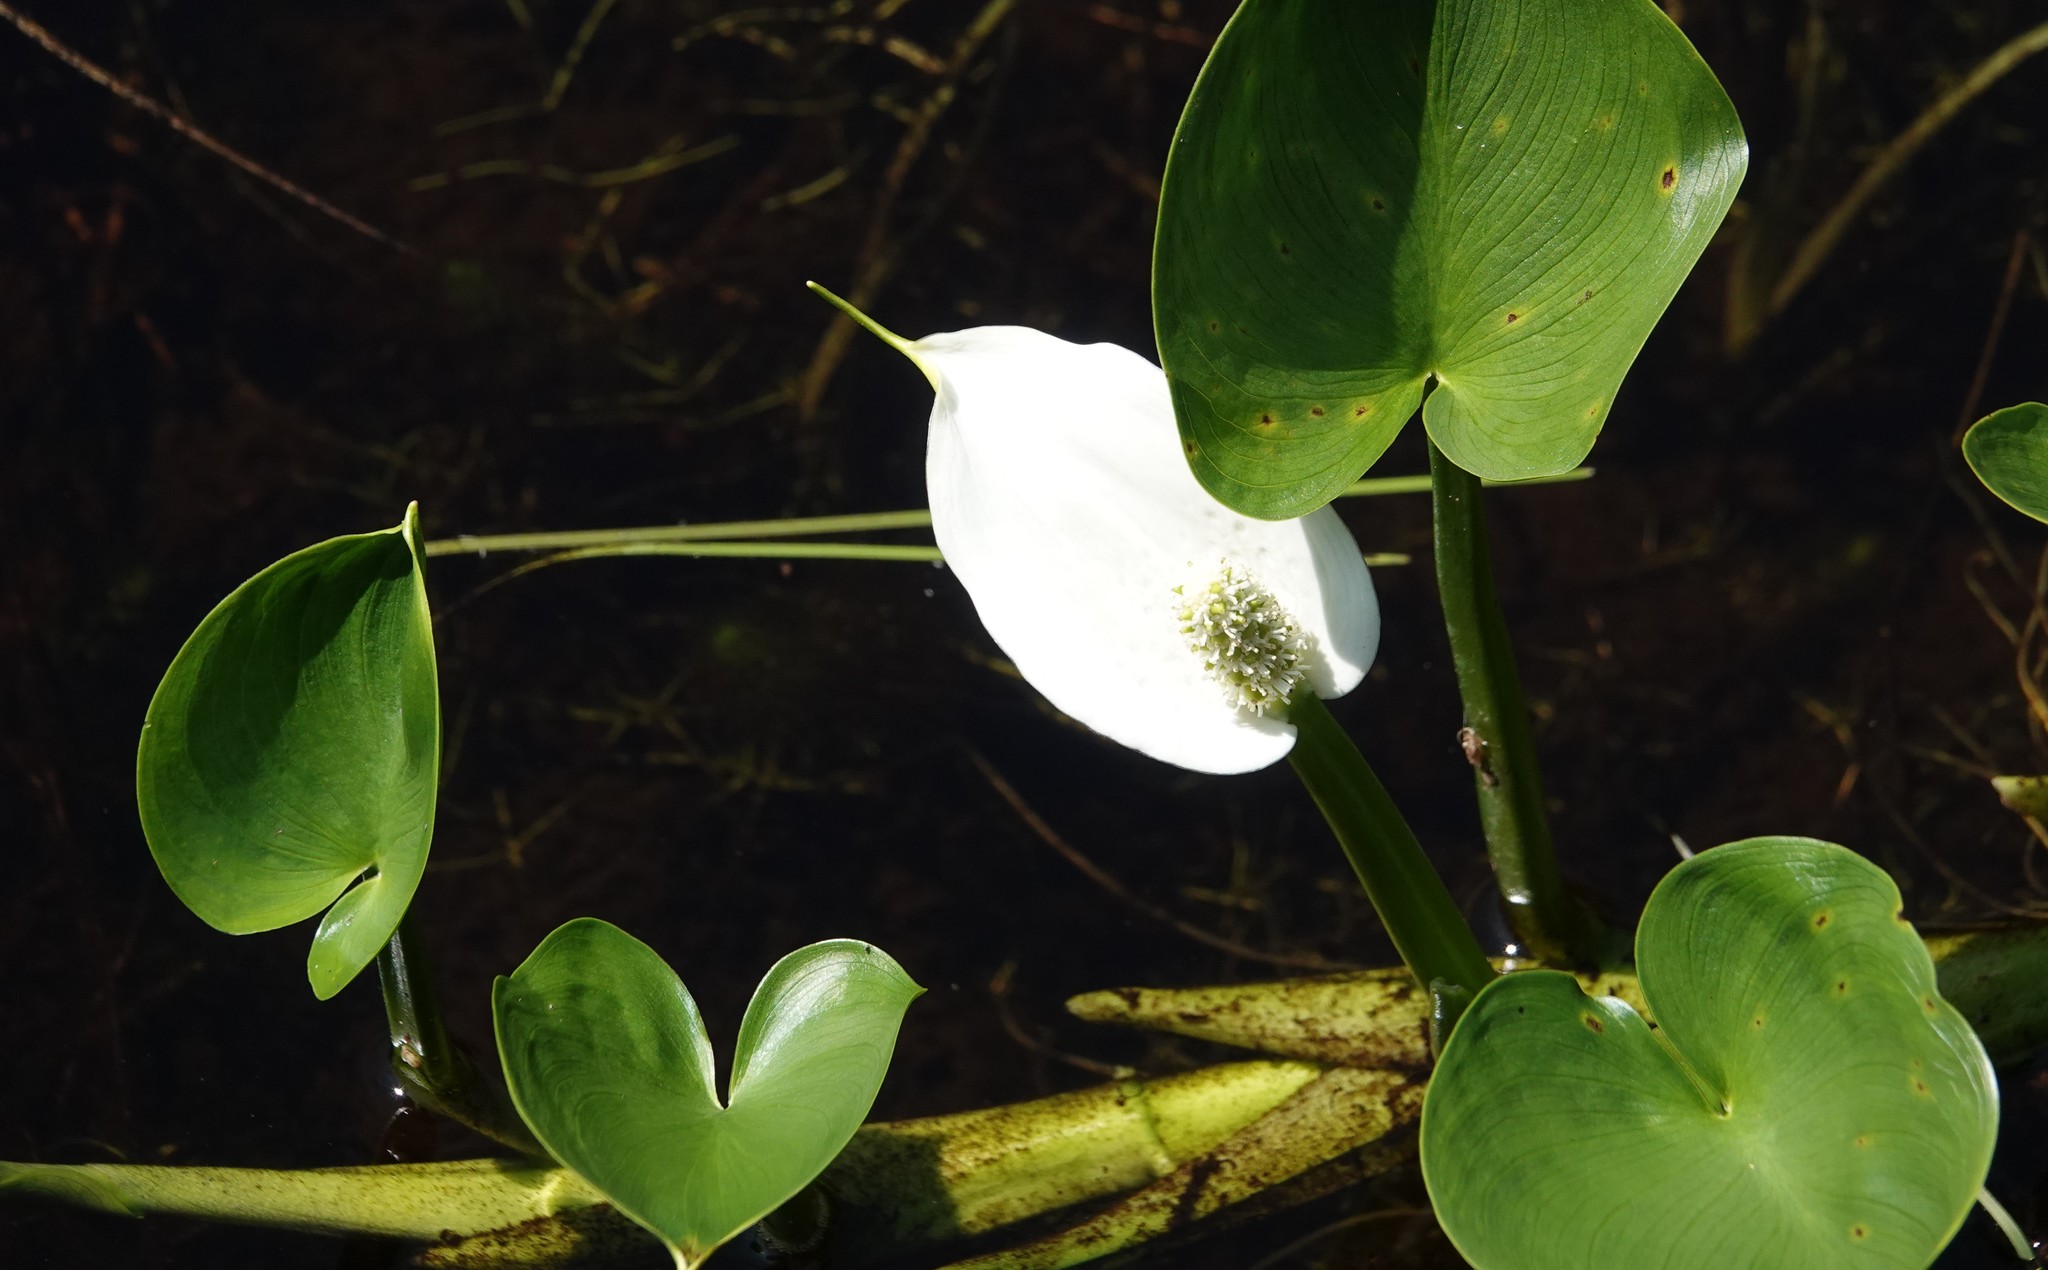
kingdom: Plantae
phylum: Tracheophyta
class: Liliopsida
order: Alismatales
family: Araceae
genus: Calla
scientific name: Calla palustris
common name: Bog arum
